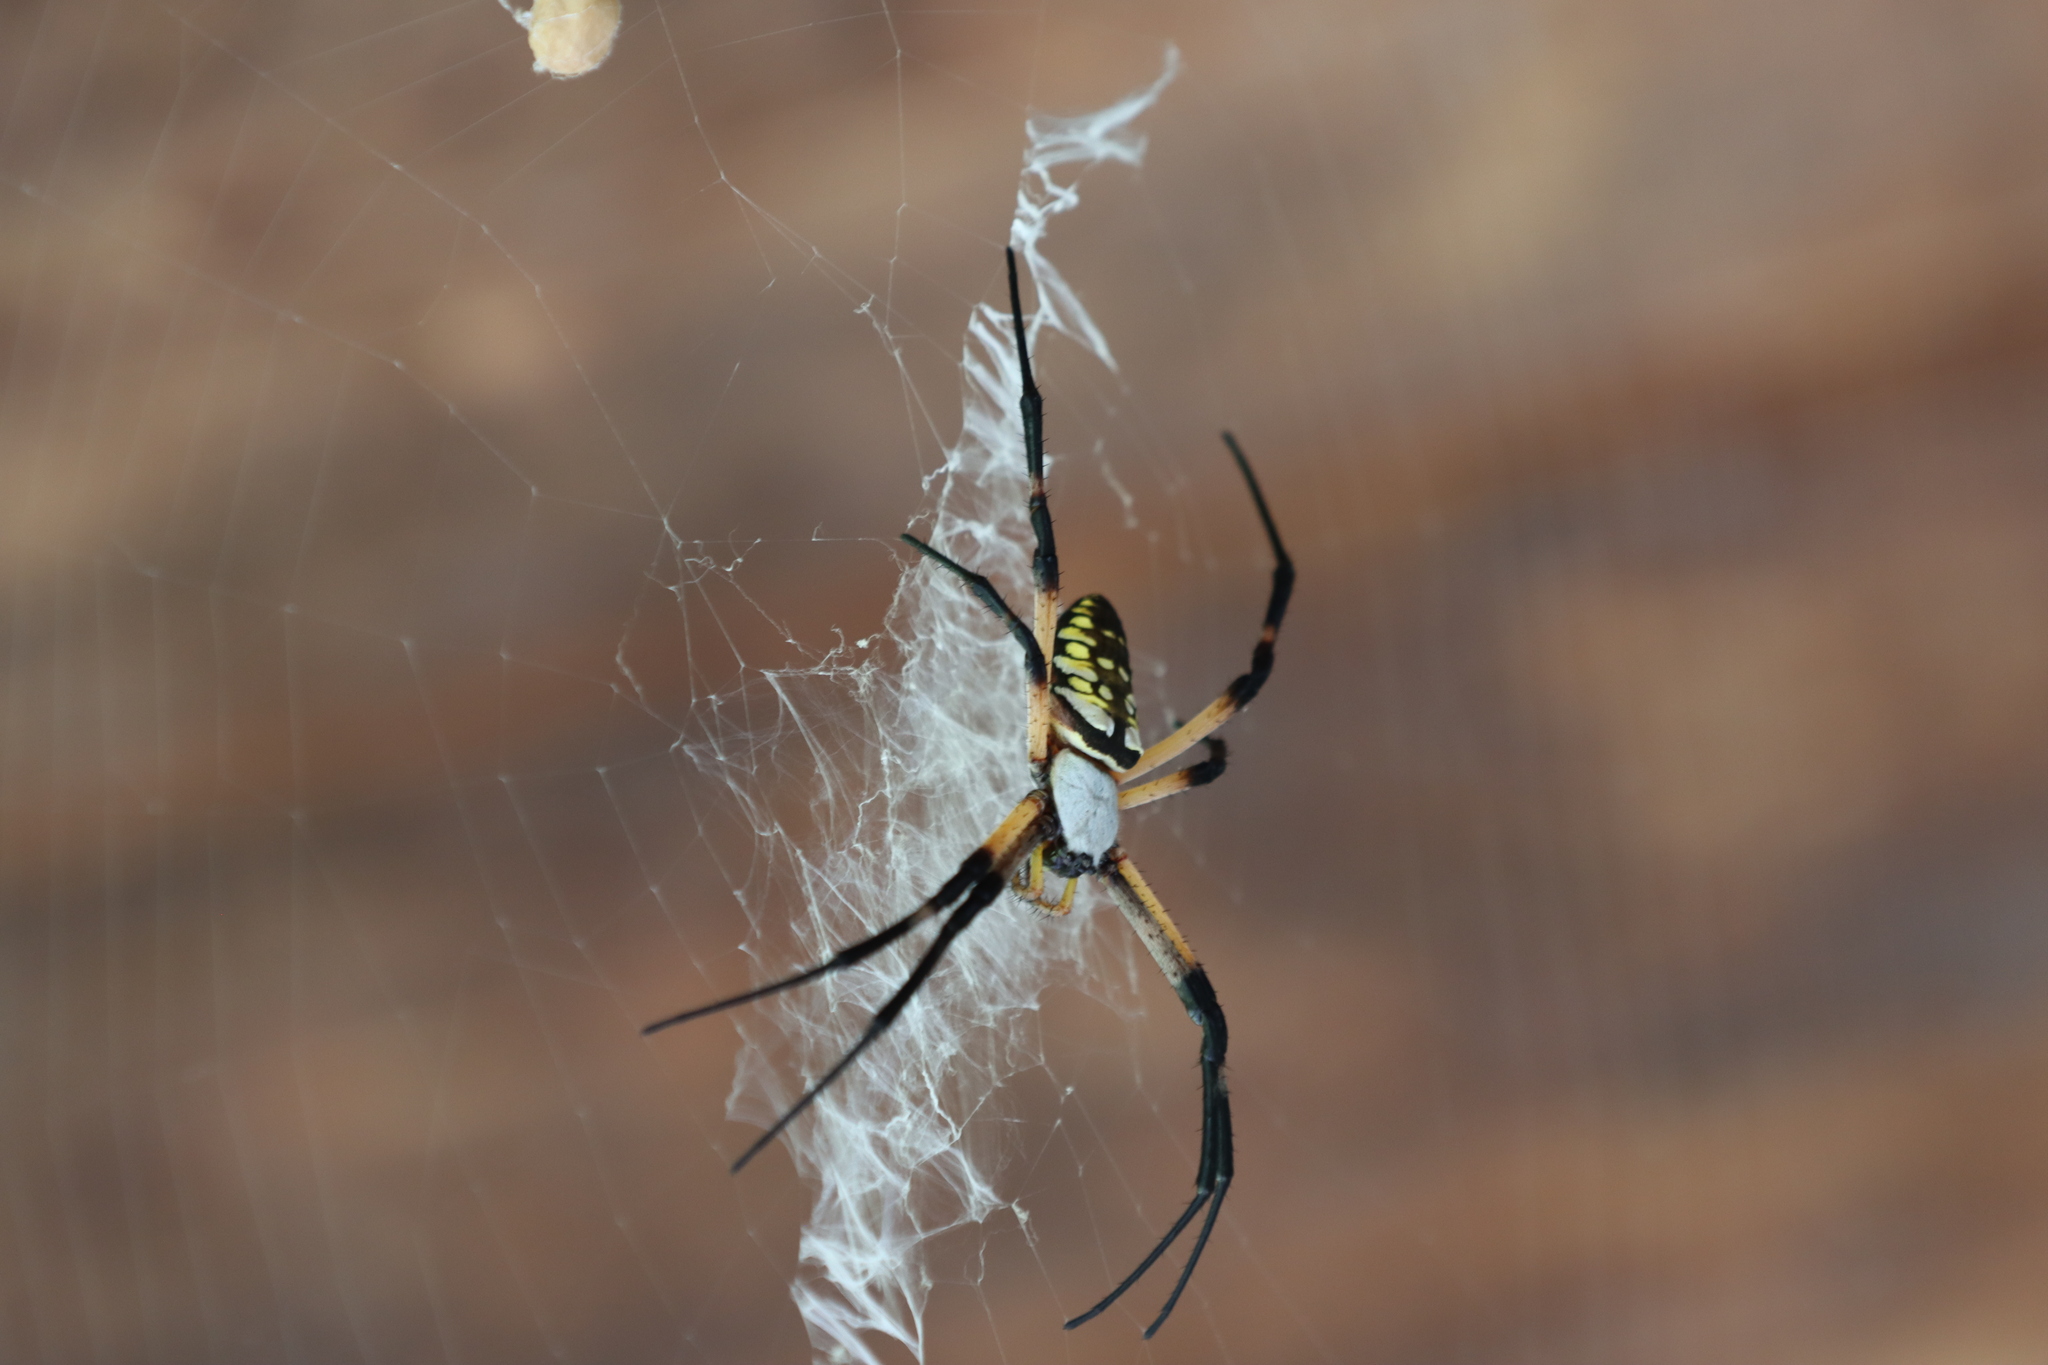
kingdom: Animalia
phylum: Arthropoda
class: Arachnida
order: Araneae
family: Araneidae
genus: Argiope
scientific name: Argiope aurantia
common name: Orb weavers
